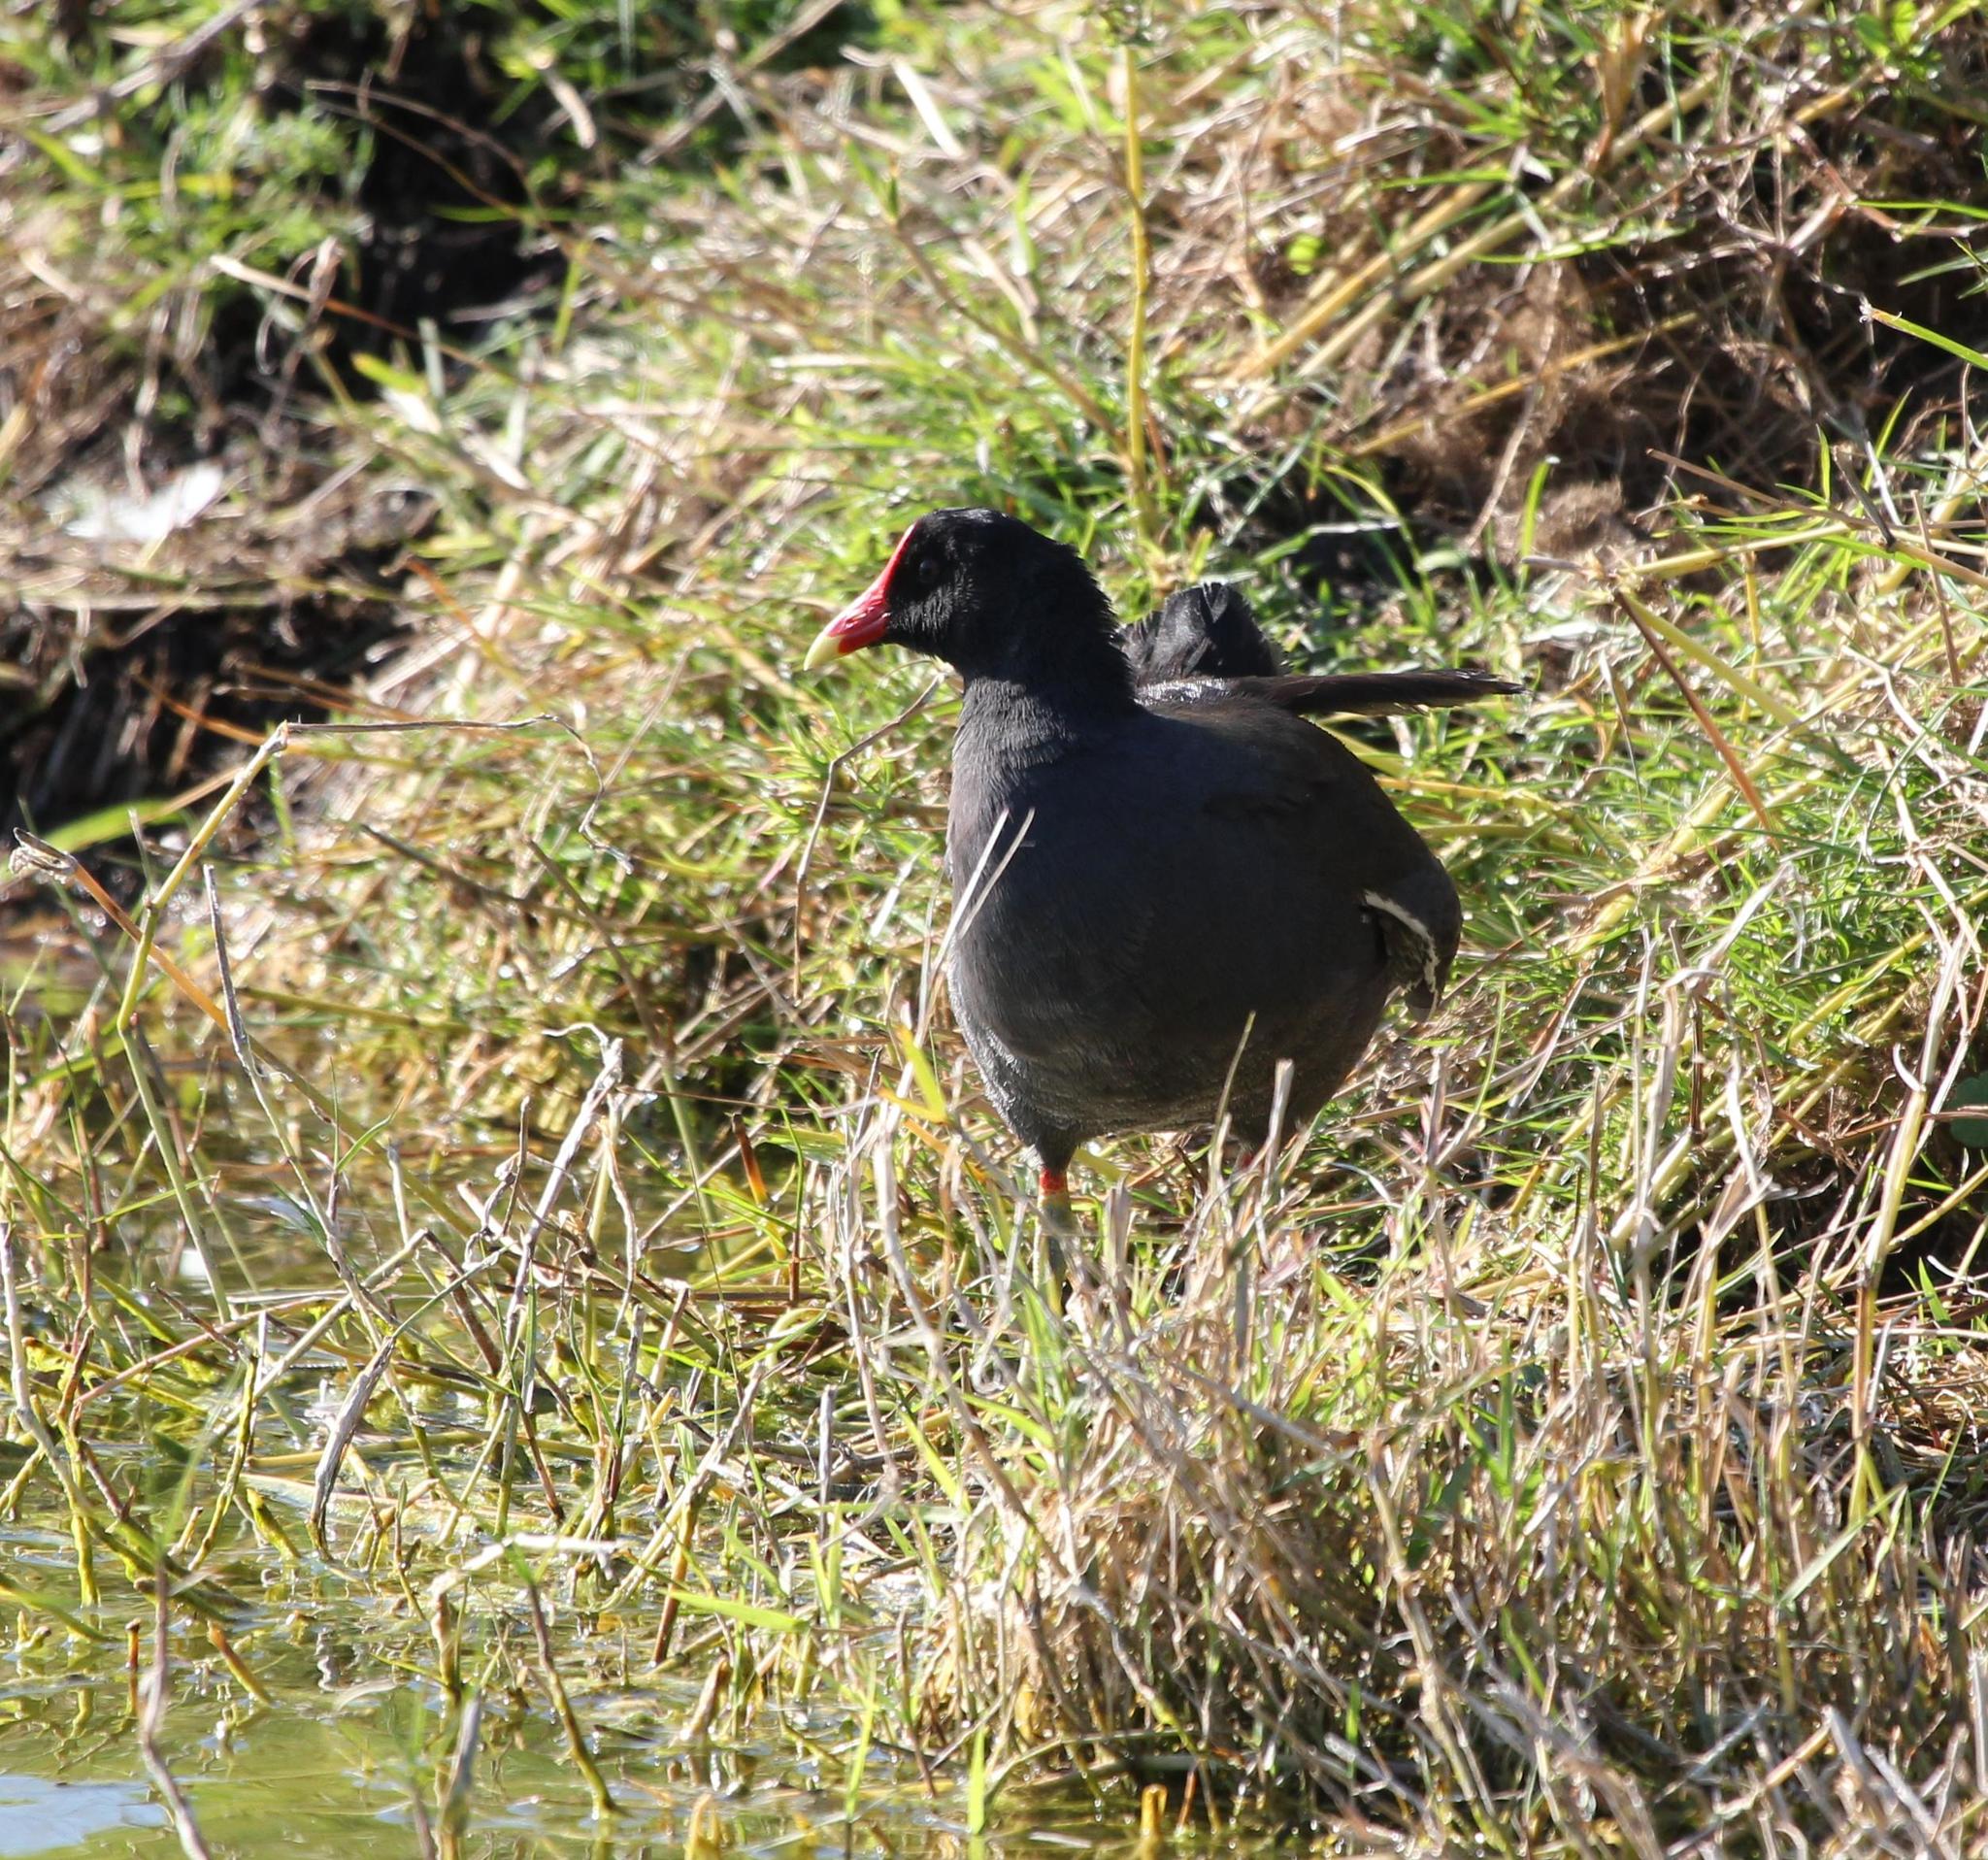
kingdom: Animalia
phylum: Chordata
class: Aves
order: Gruiformes
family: Rallidae
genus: Gallinula
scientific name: Gallinula chloropus
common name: Common moorhen
